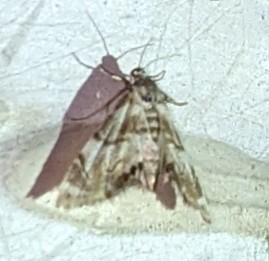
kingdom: Animalia
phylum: Arthropoda
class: Insecta
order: Lepidoptera
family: Crambidae
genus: Eoparargyractis
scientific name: Eoparargyractis plevie
